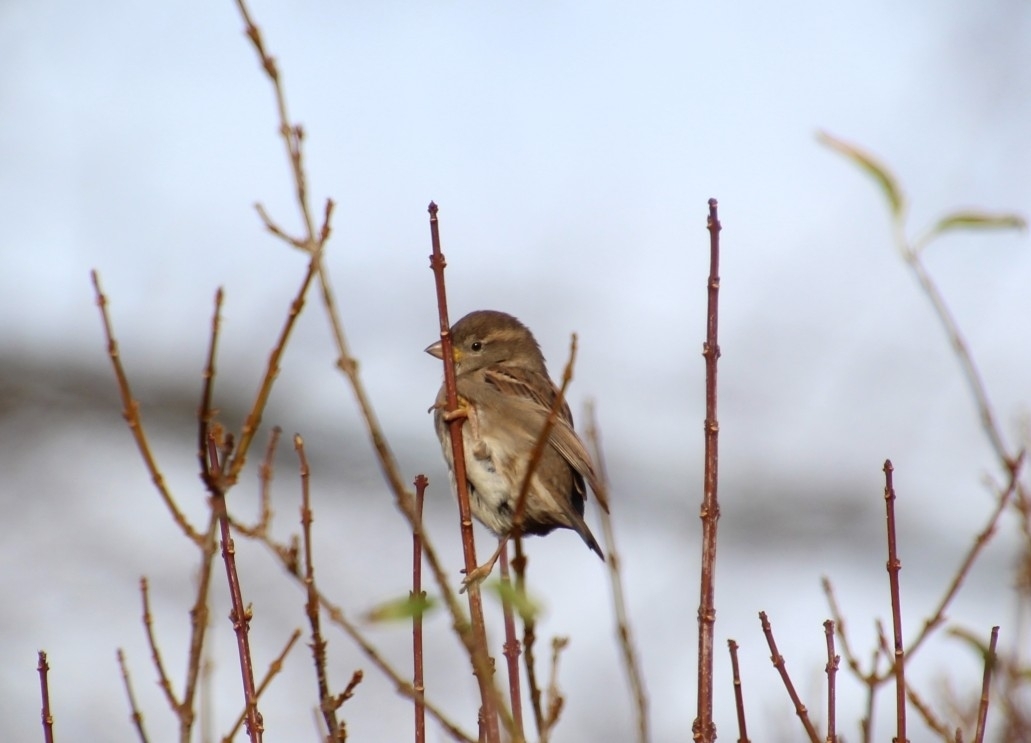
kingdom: Animalia
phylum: Chordata
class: Aves
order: Passeriformes
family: Passeridae
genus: Passer
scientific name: Passer domesticus
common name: House sparrow
